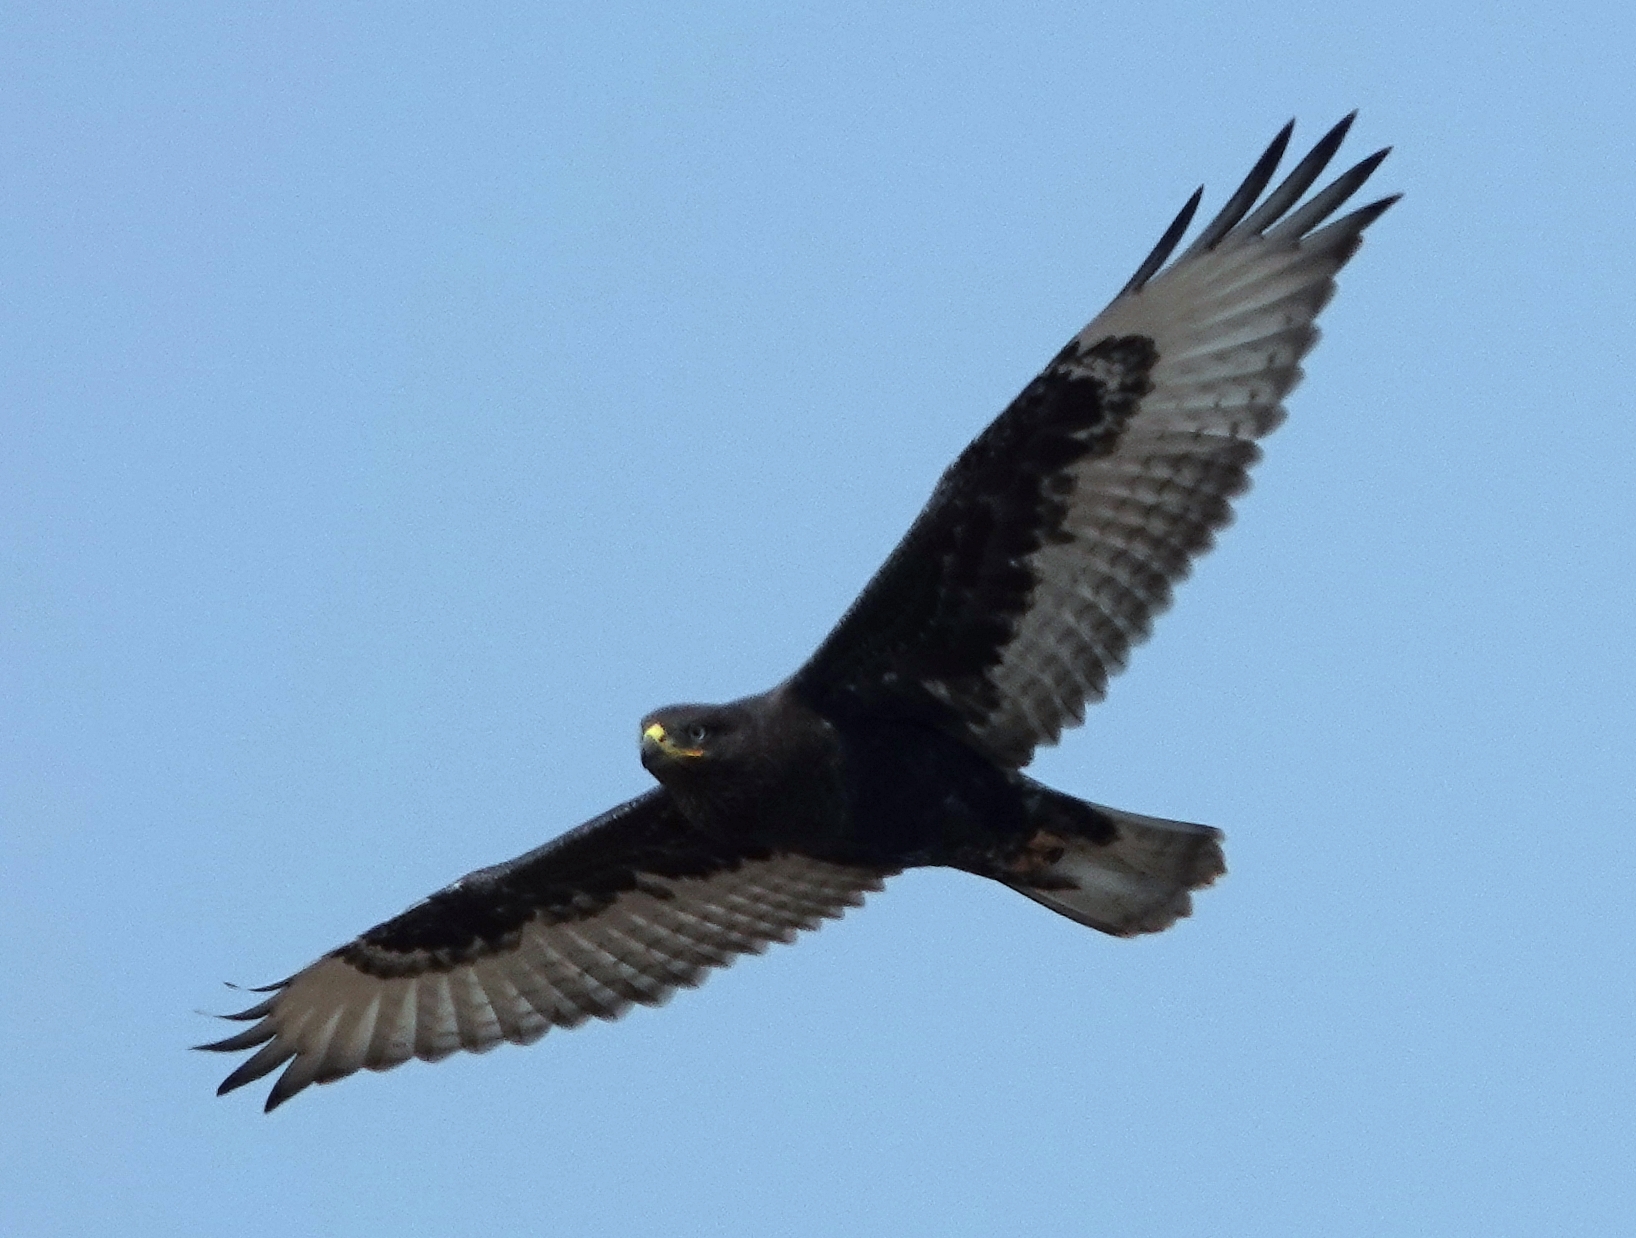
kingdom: Animalia
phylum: Chordata
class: Aves
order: Accipitriformes
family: Accipitridae
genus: Buteo
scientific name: Buteo regalis
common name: Ferruginous hawk
